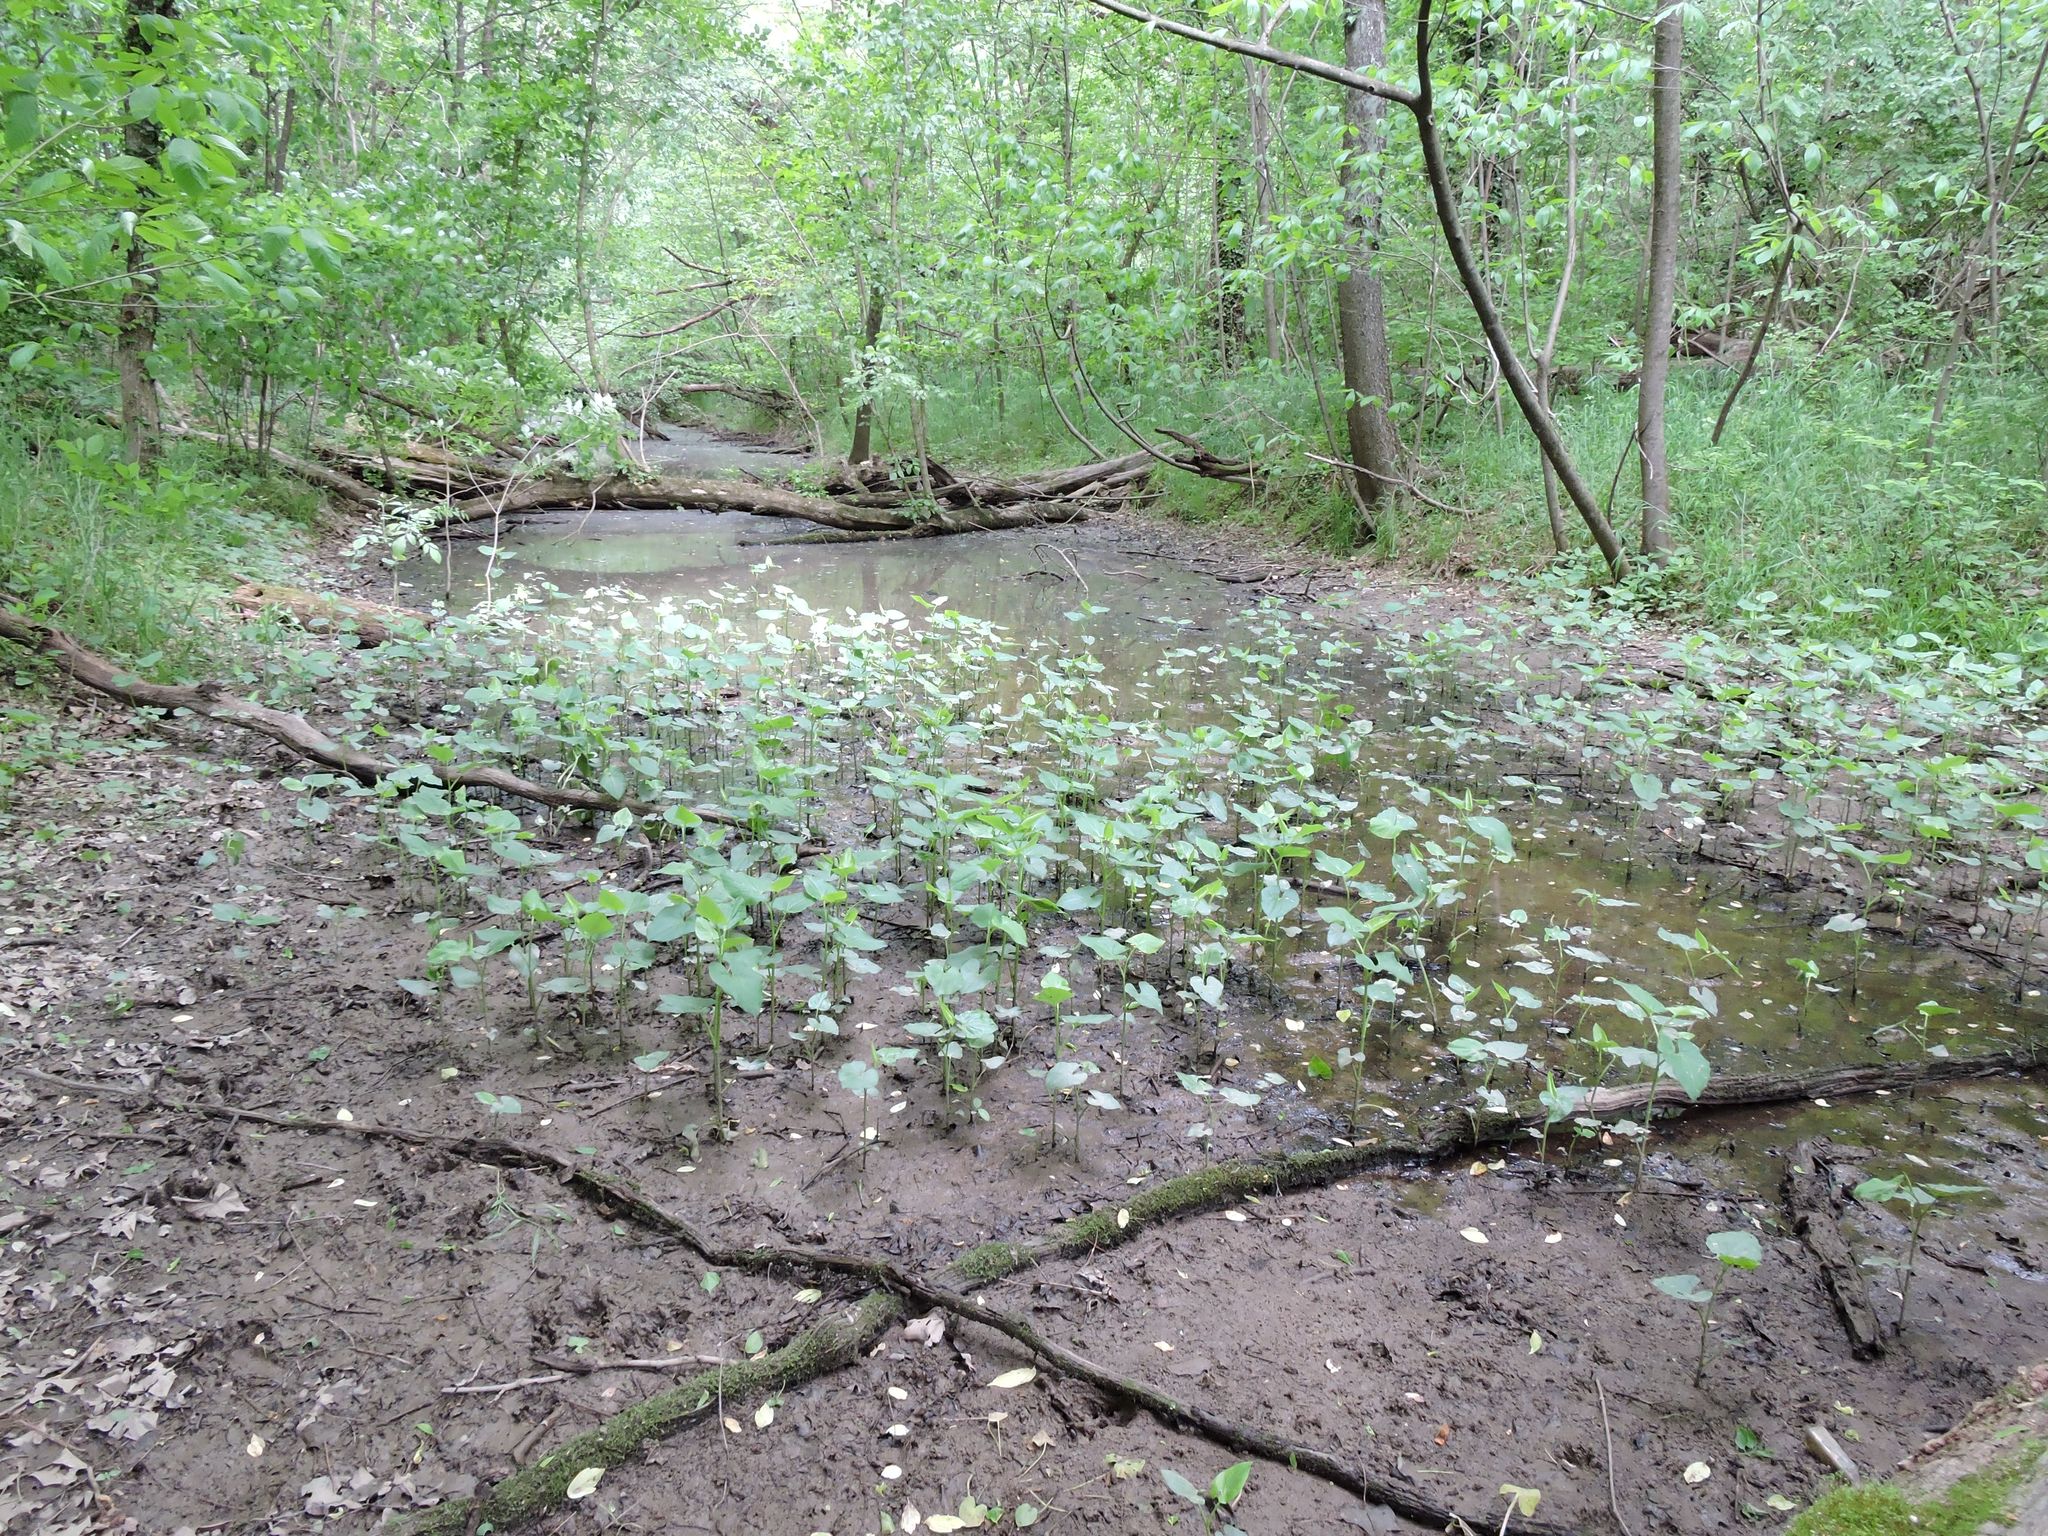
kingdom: Plantae
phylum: Tracheophyta
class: Magnoliopsida
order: Piperales
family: Saururaceae
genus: Saururus
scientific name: Saururus cernuus
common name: Lizard's-tail
